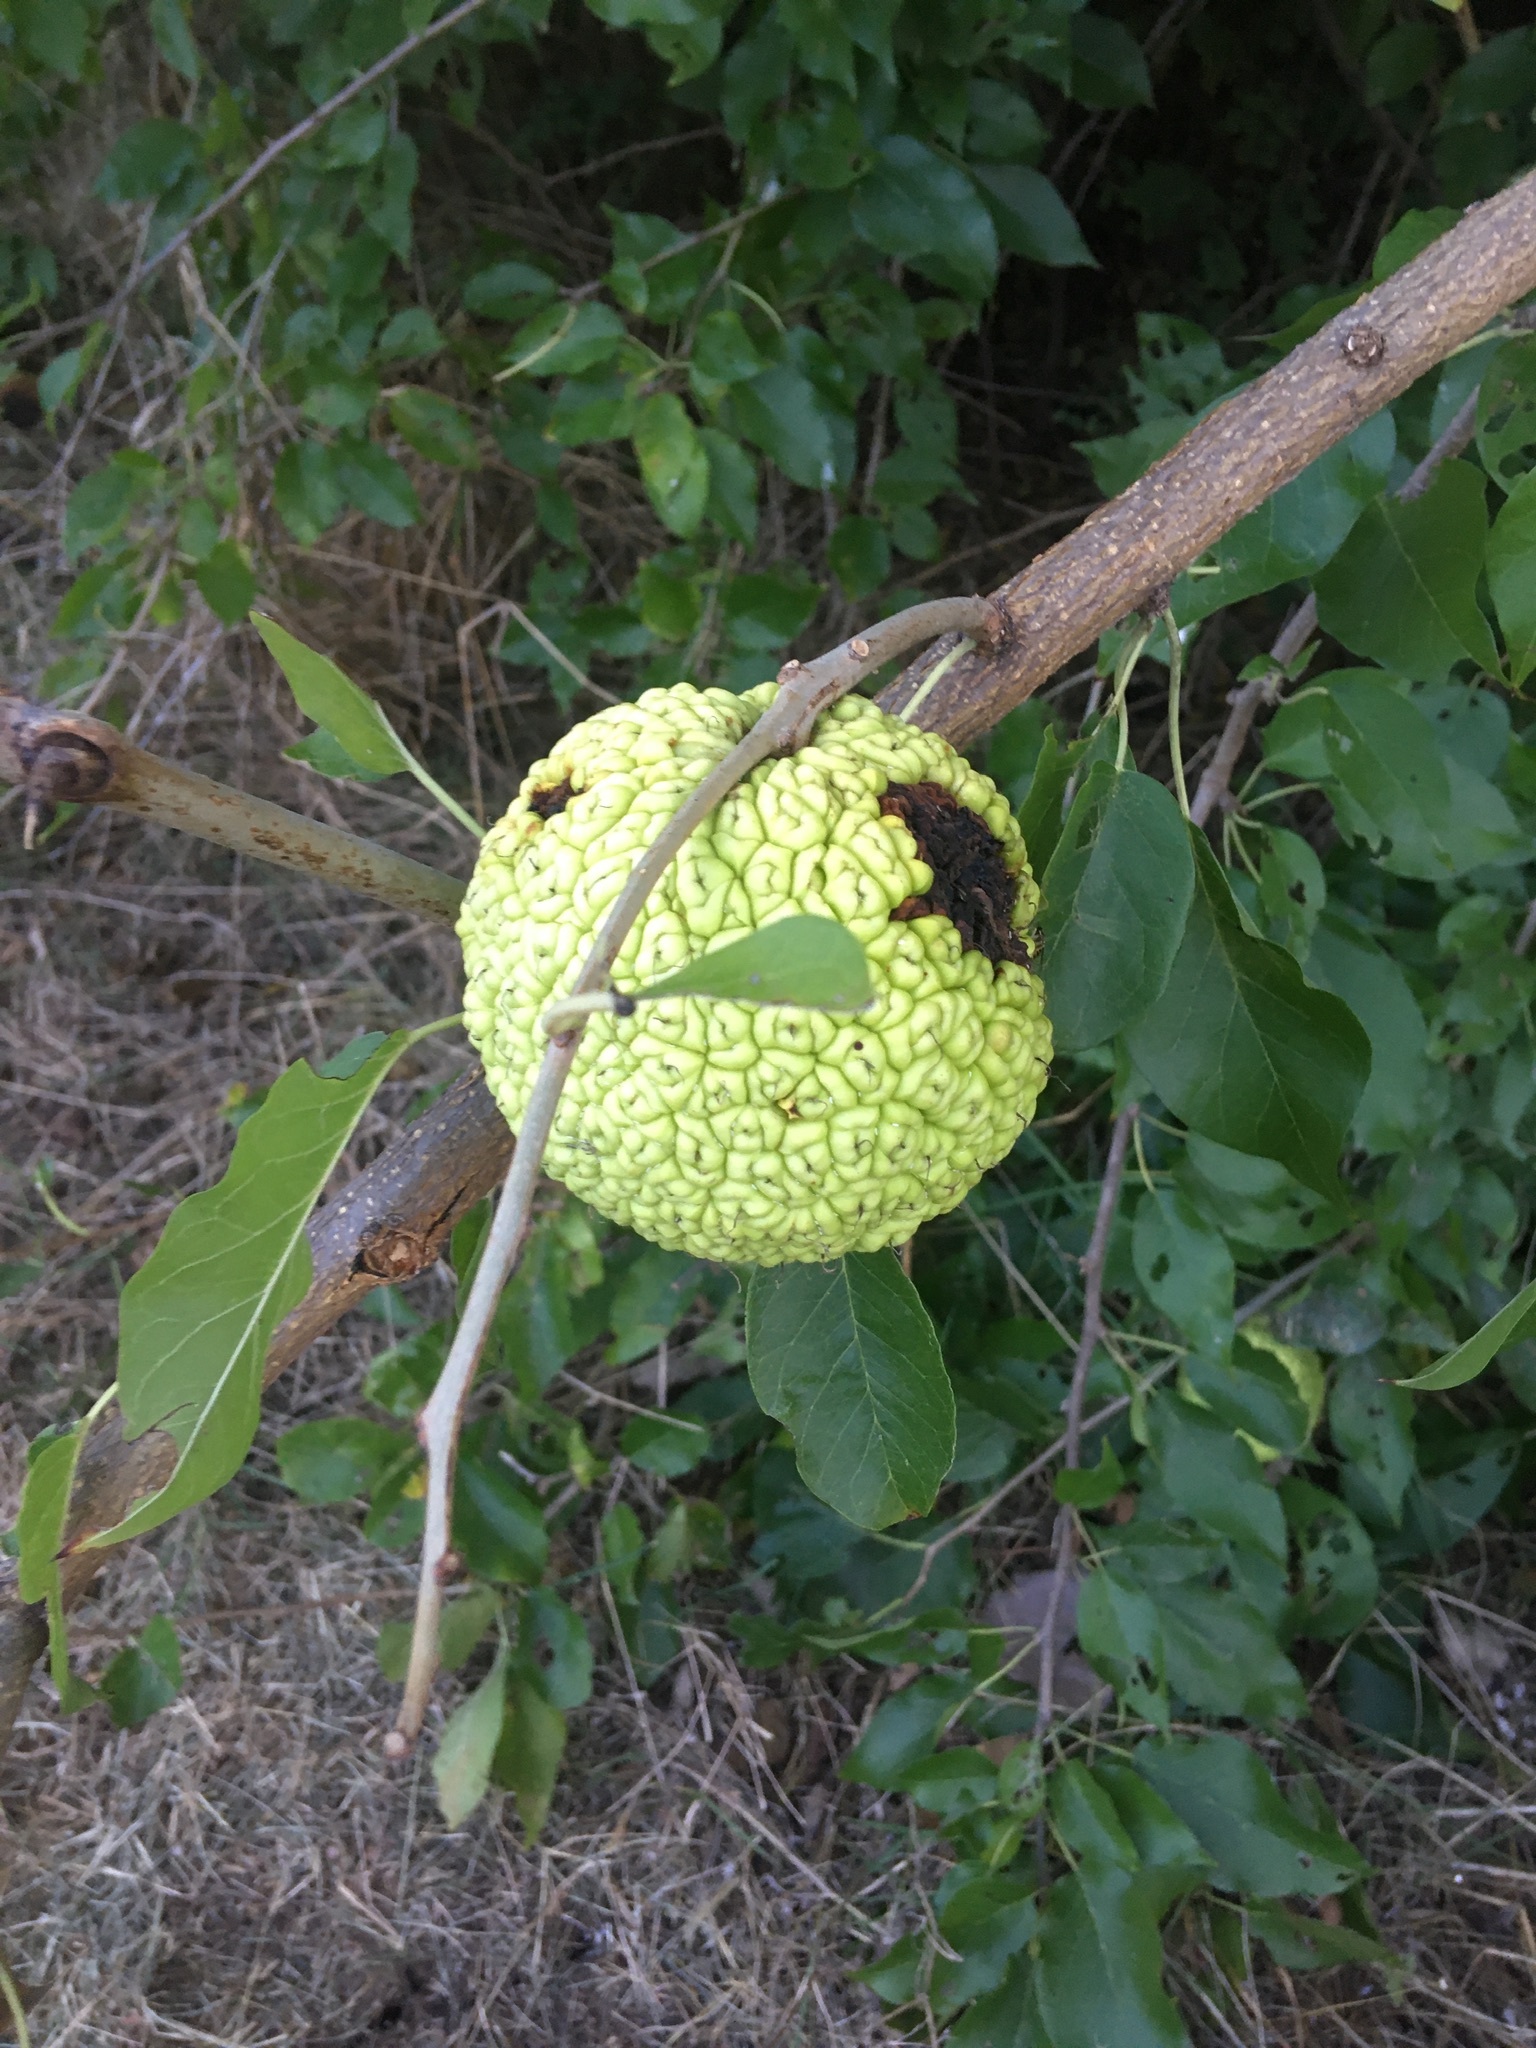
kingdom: Plantae
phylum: Tracheophyta
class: Magnoliopsida
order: Rosales
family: Moraceae
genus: Maclura
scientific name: Maclura pomifera
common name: Osage-orange
